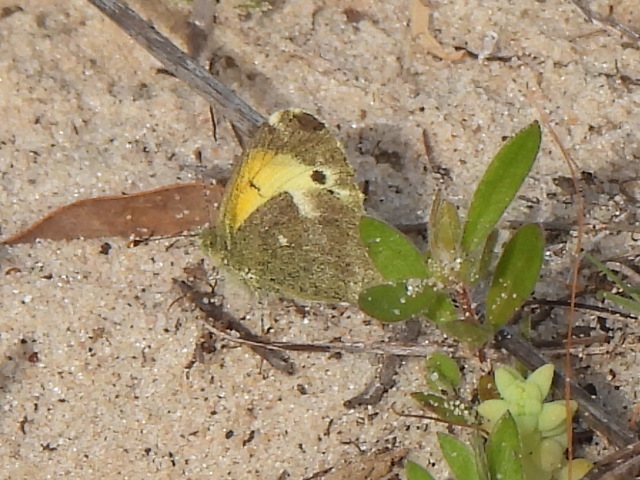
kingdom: Animalia
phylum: Arthropoda
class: Insecta
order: Lepidoptera
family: Pieridae
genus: Nathalis
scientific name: Nathalis iole
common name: Dainty sulphur
